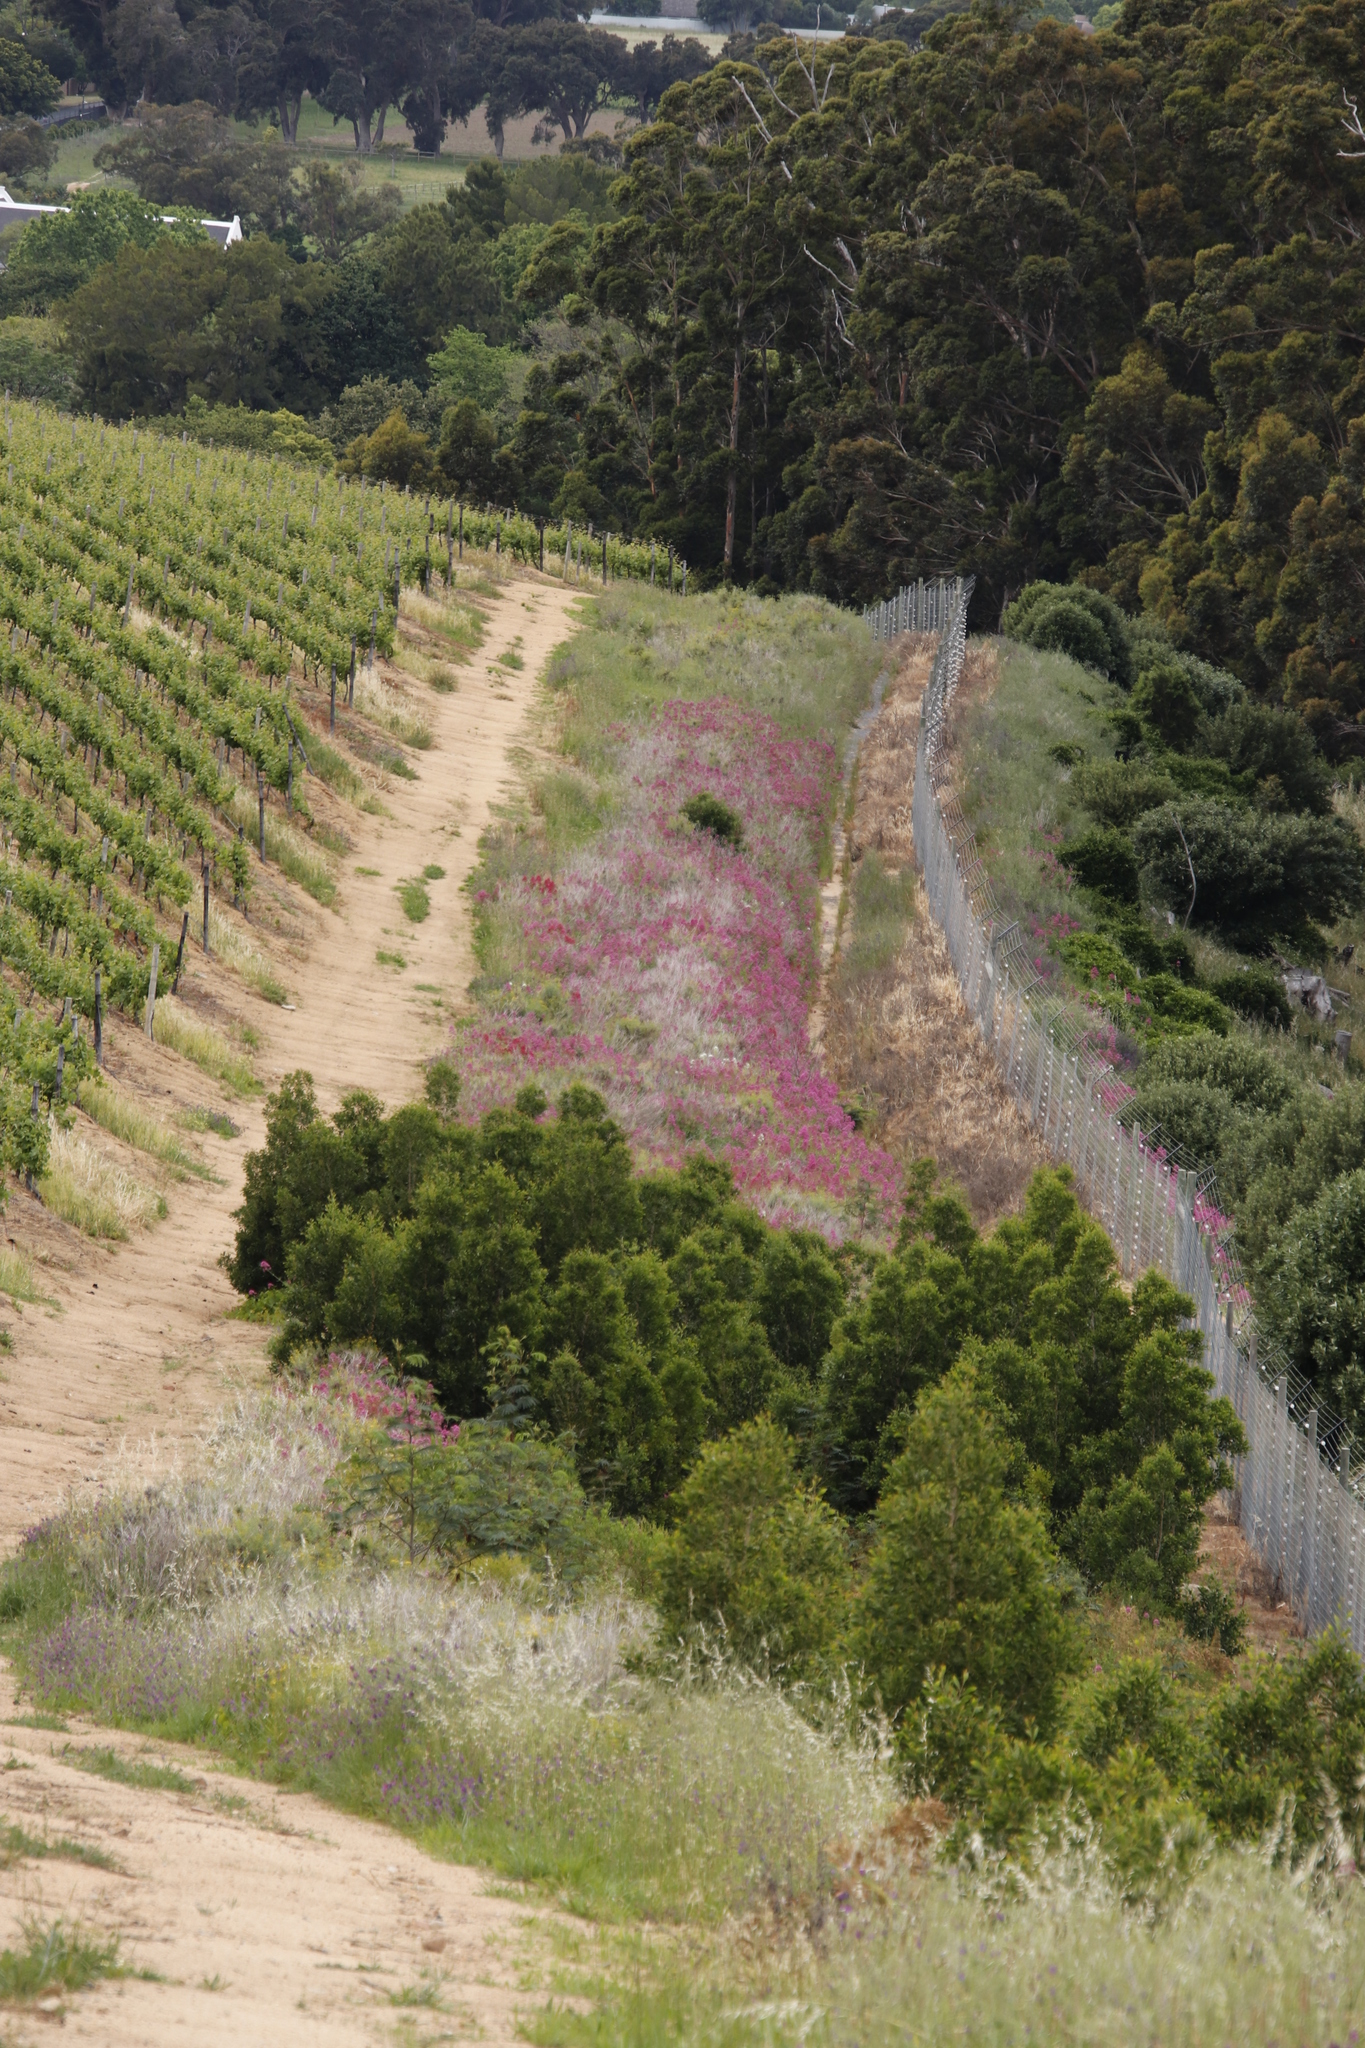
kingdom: Plantae
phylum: Tracheophyta
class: Magnoliopsida
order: Dipsacales
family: Caprifoliaceae
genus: Centranthus
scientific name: Centranthus ruber
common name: Red valerian
